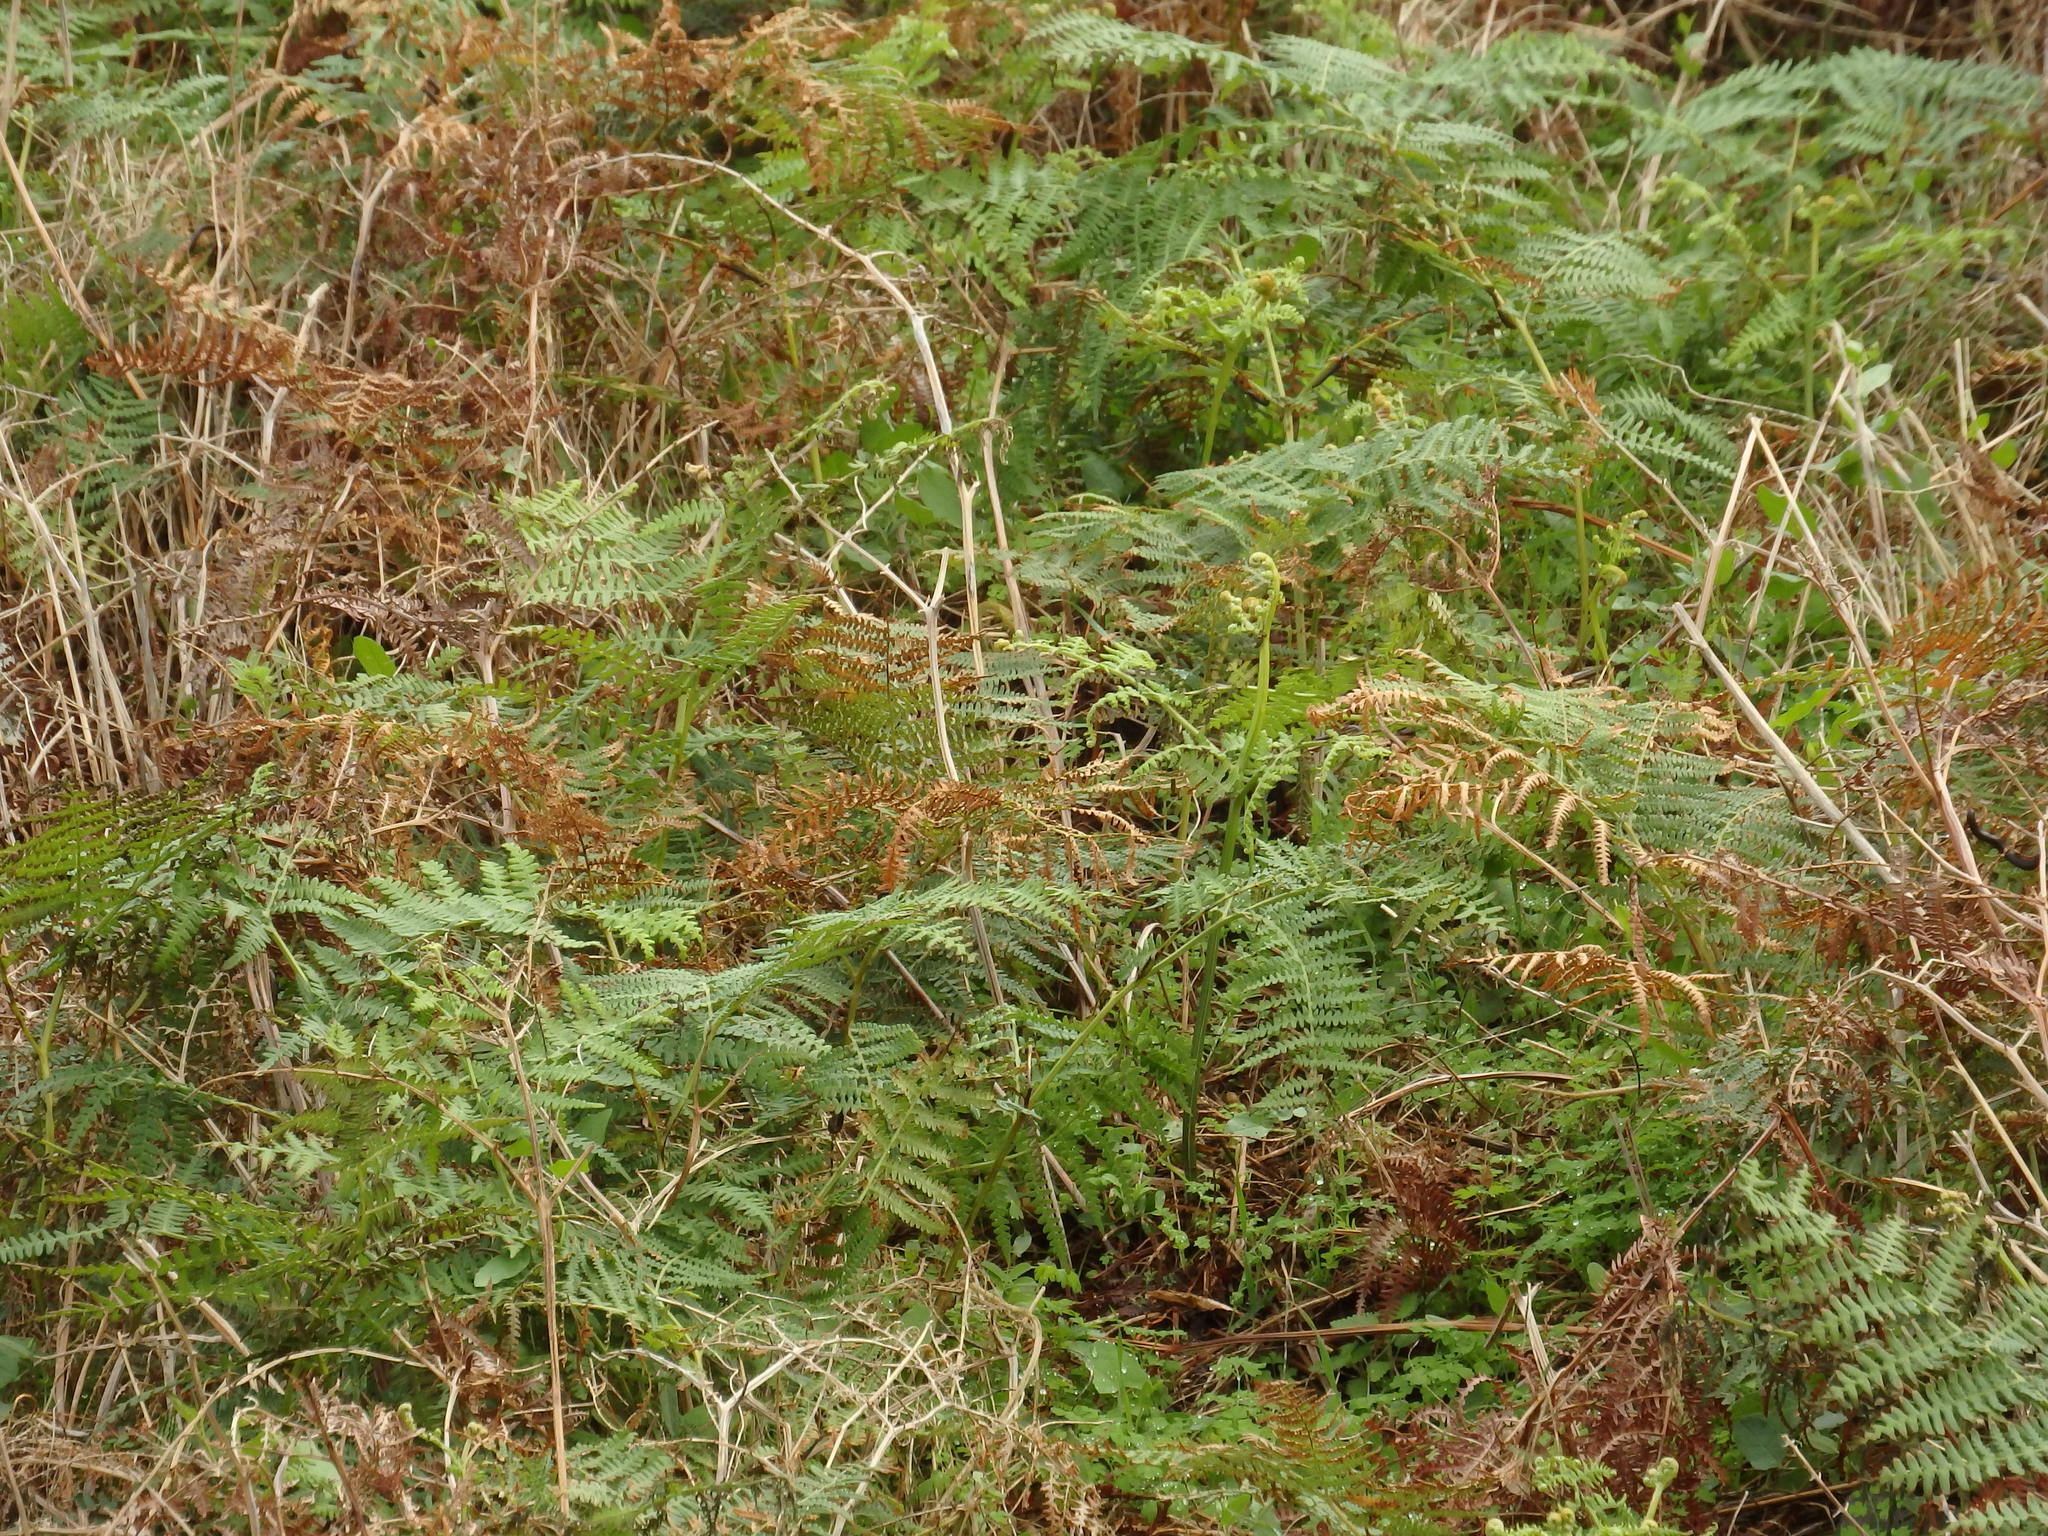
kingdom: Plantae
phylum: Tracheophyta
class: Polypodiopsida
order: Polypodiales
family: Dennstaedtiaceae
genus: Pteridium
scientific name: Pteridium aquilinum
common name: Bracken
